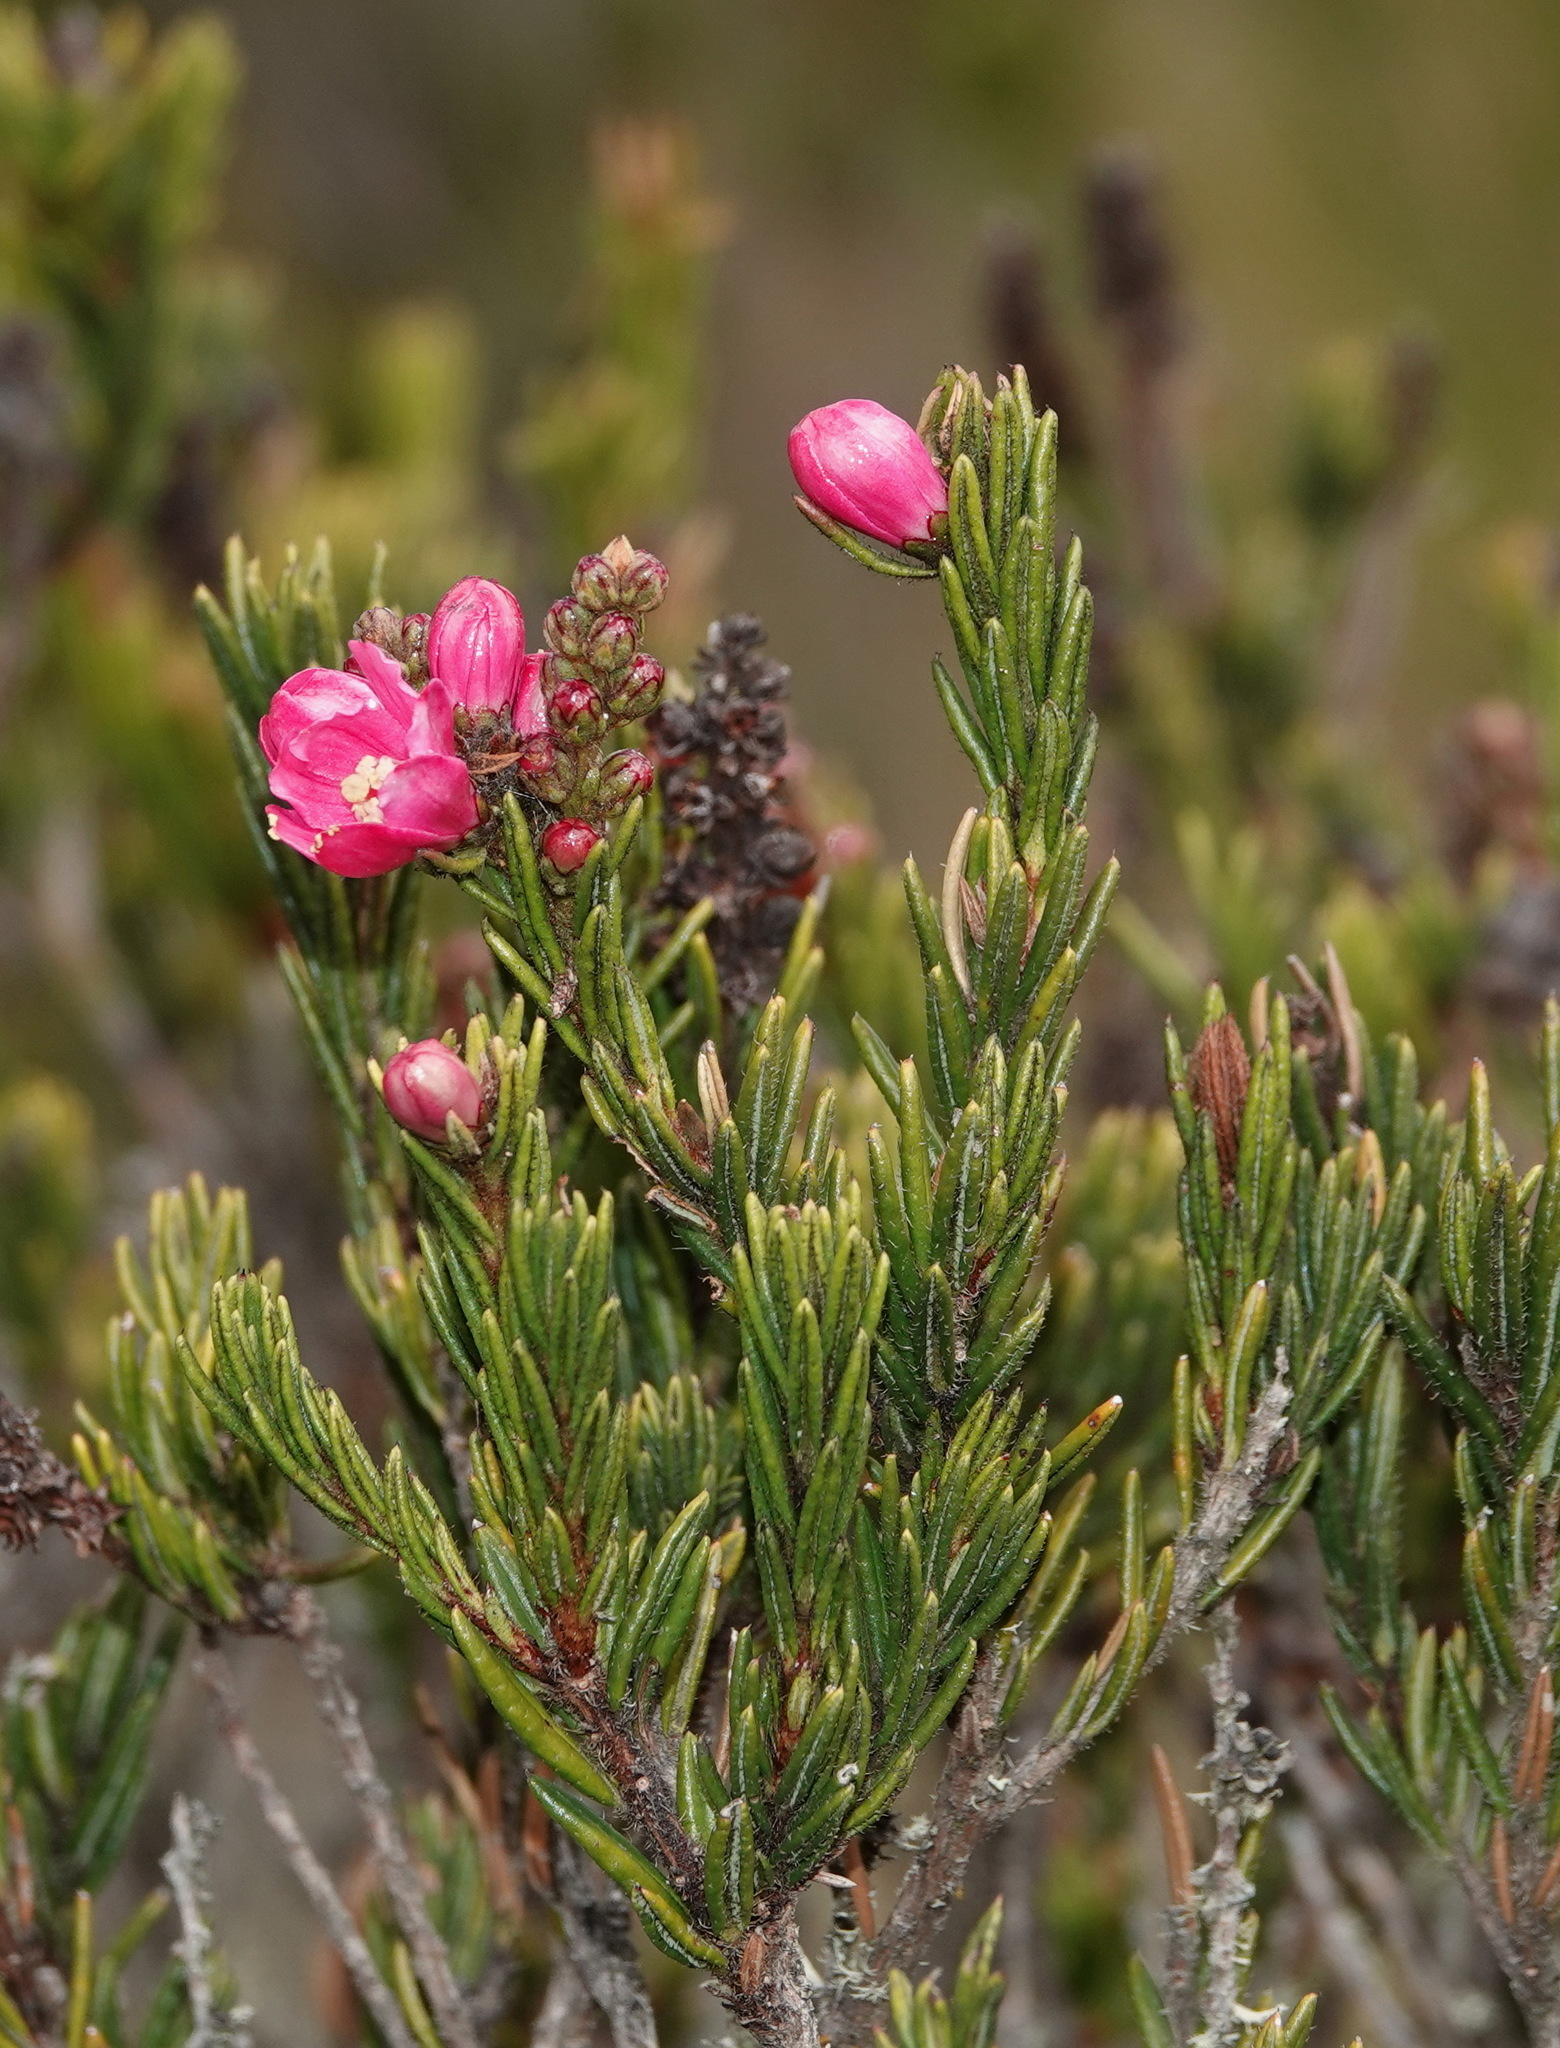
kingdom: Plantae
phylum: Tracheophyta
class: Magnoliopsida
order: Ericales
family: Ericaceae
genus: Bejaria
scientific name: Bejaria nana
